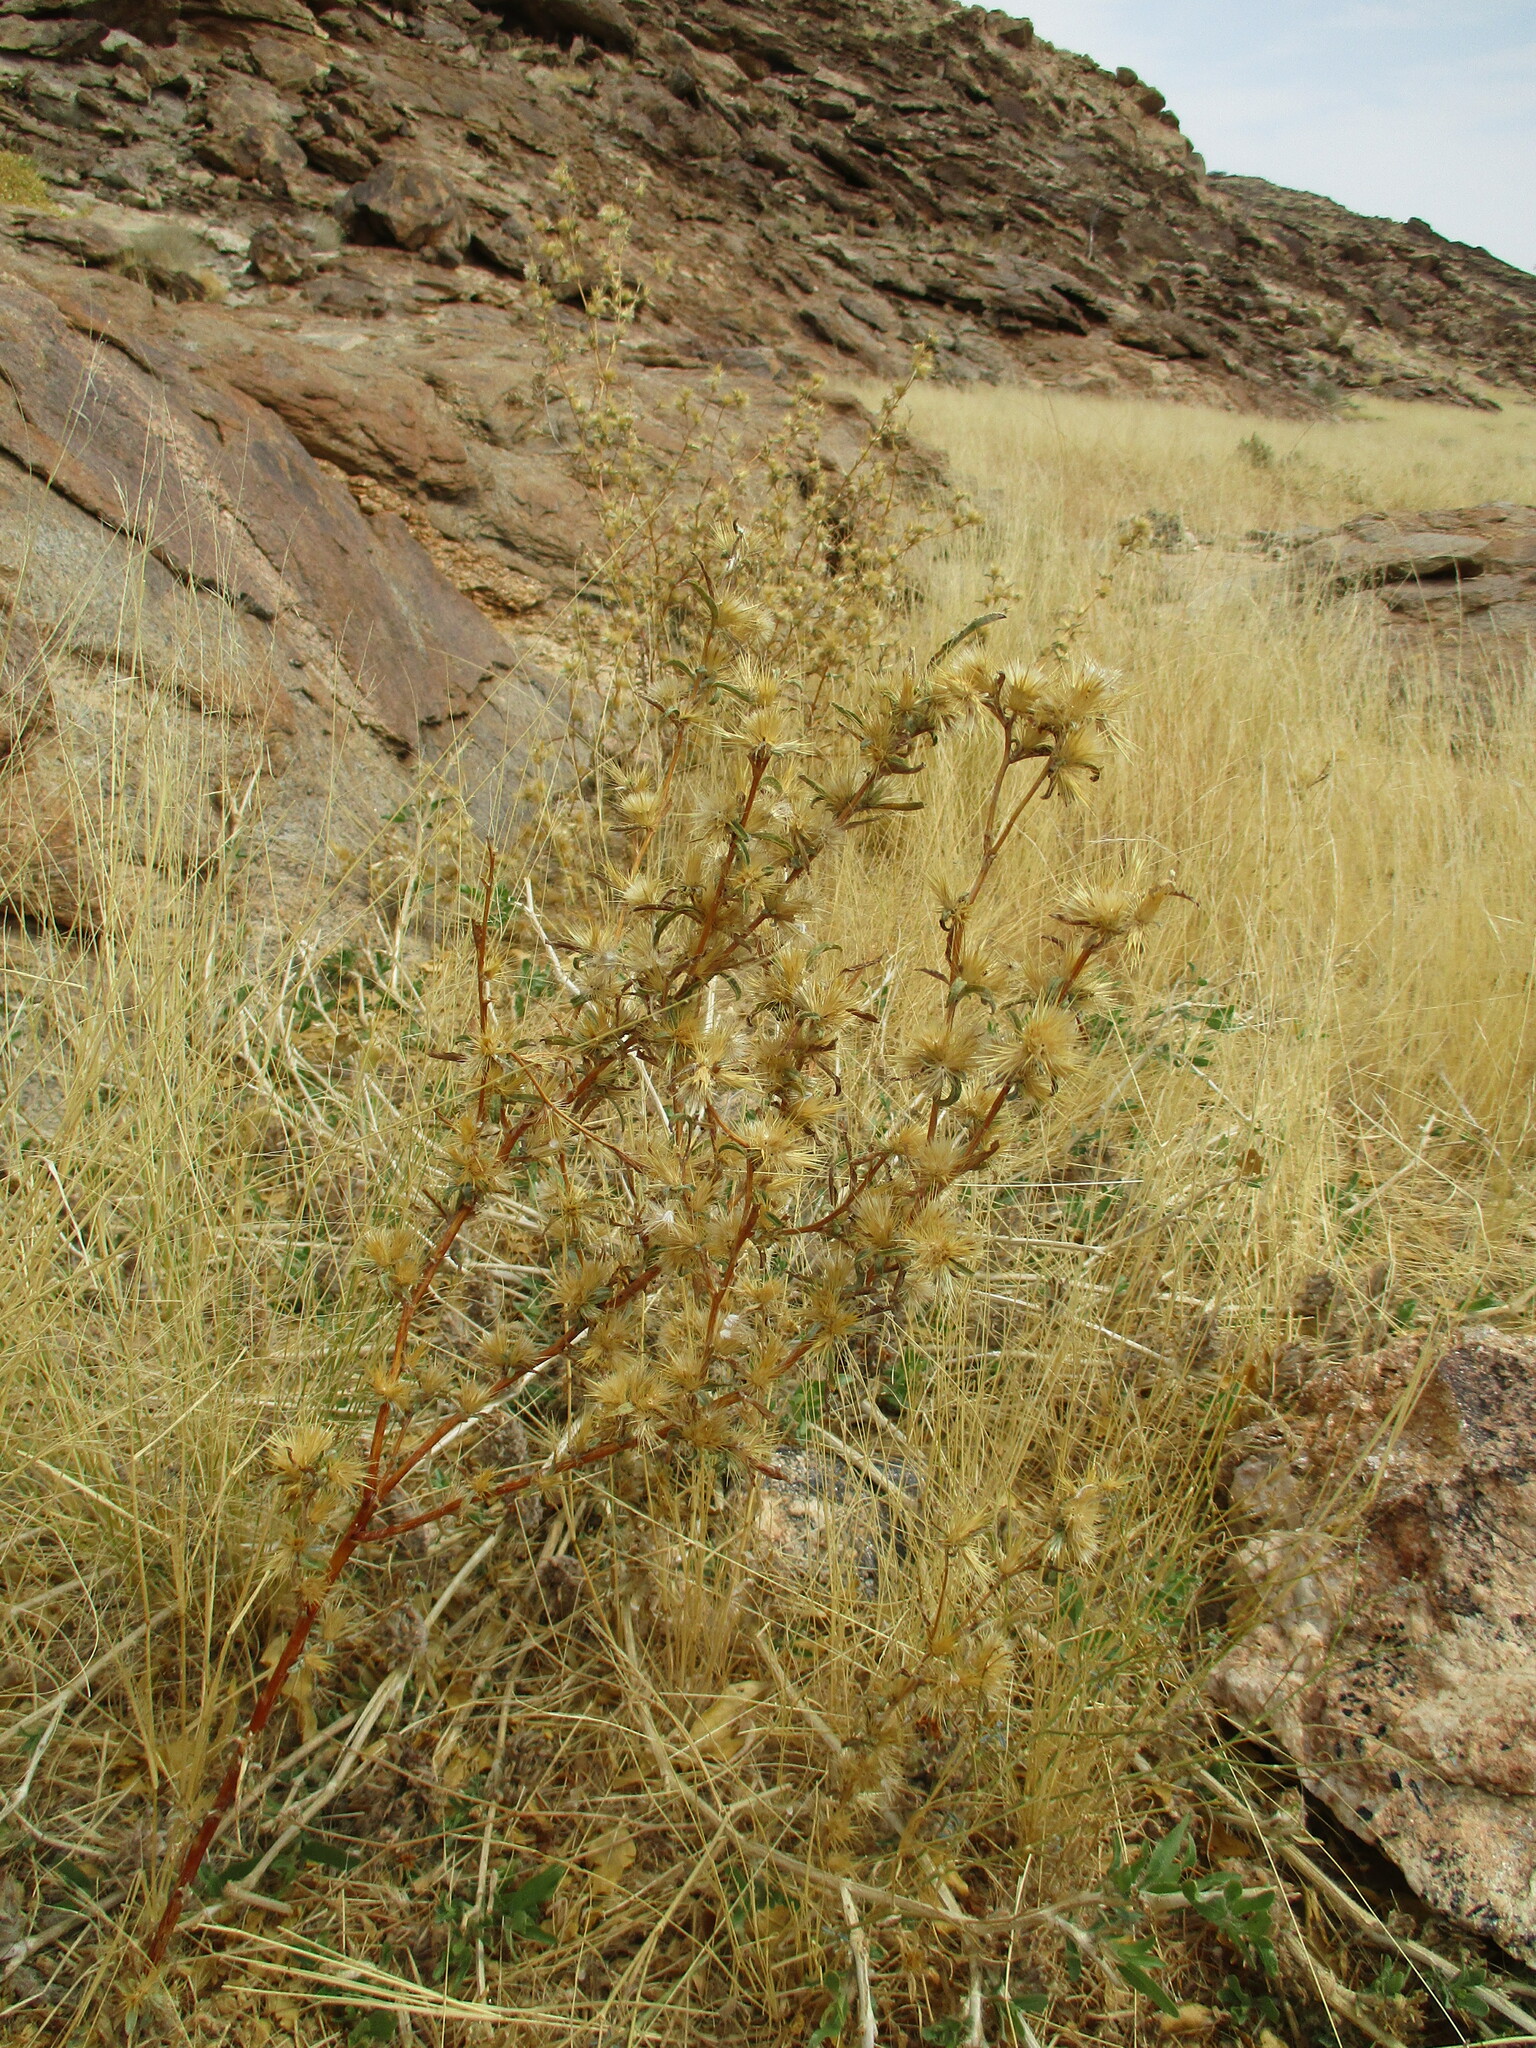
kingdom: Plantae
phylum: Tracheophyta
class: Magnoliopsida
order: Asterales
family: Asteraceae
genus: Dicoma
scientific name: Dicoma tomentosa
